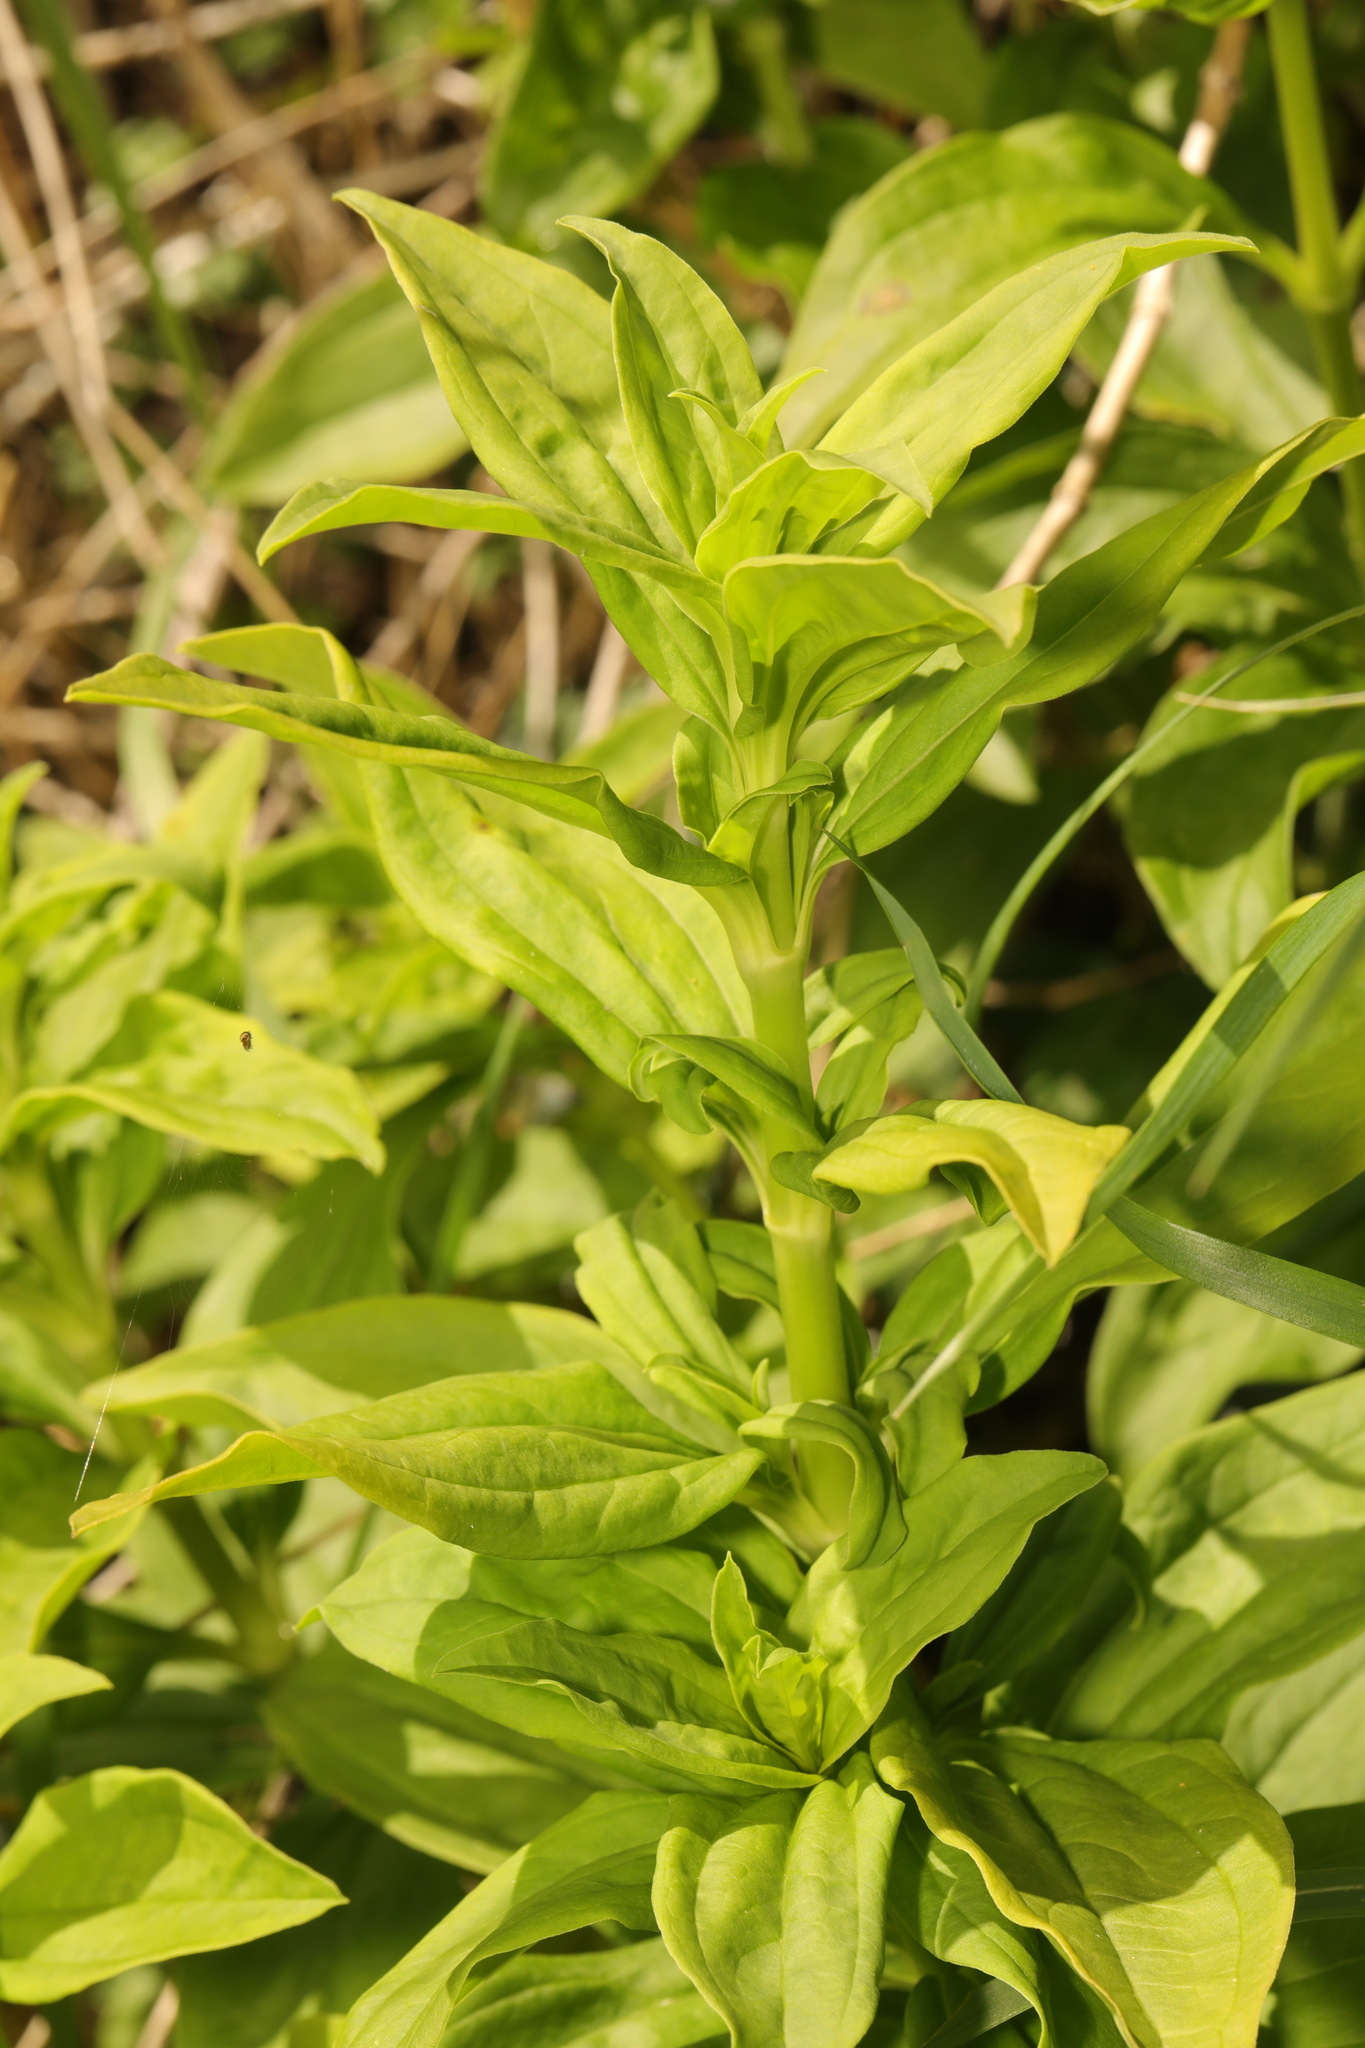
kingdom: Plantae
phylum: Tracheophyta
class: Magnoliopsida
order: Caryophyllales
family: Caryophyllaceae
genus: Saponaria
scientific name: Saponaria officinalis
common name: Soapwort
